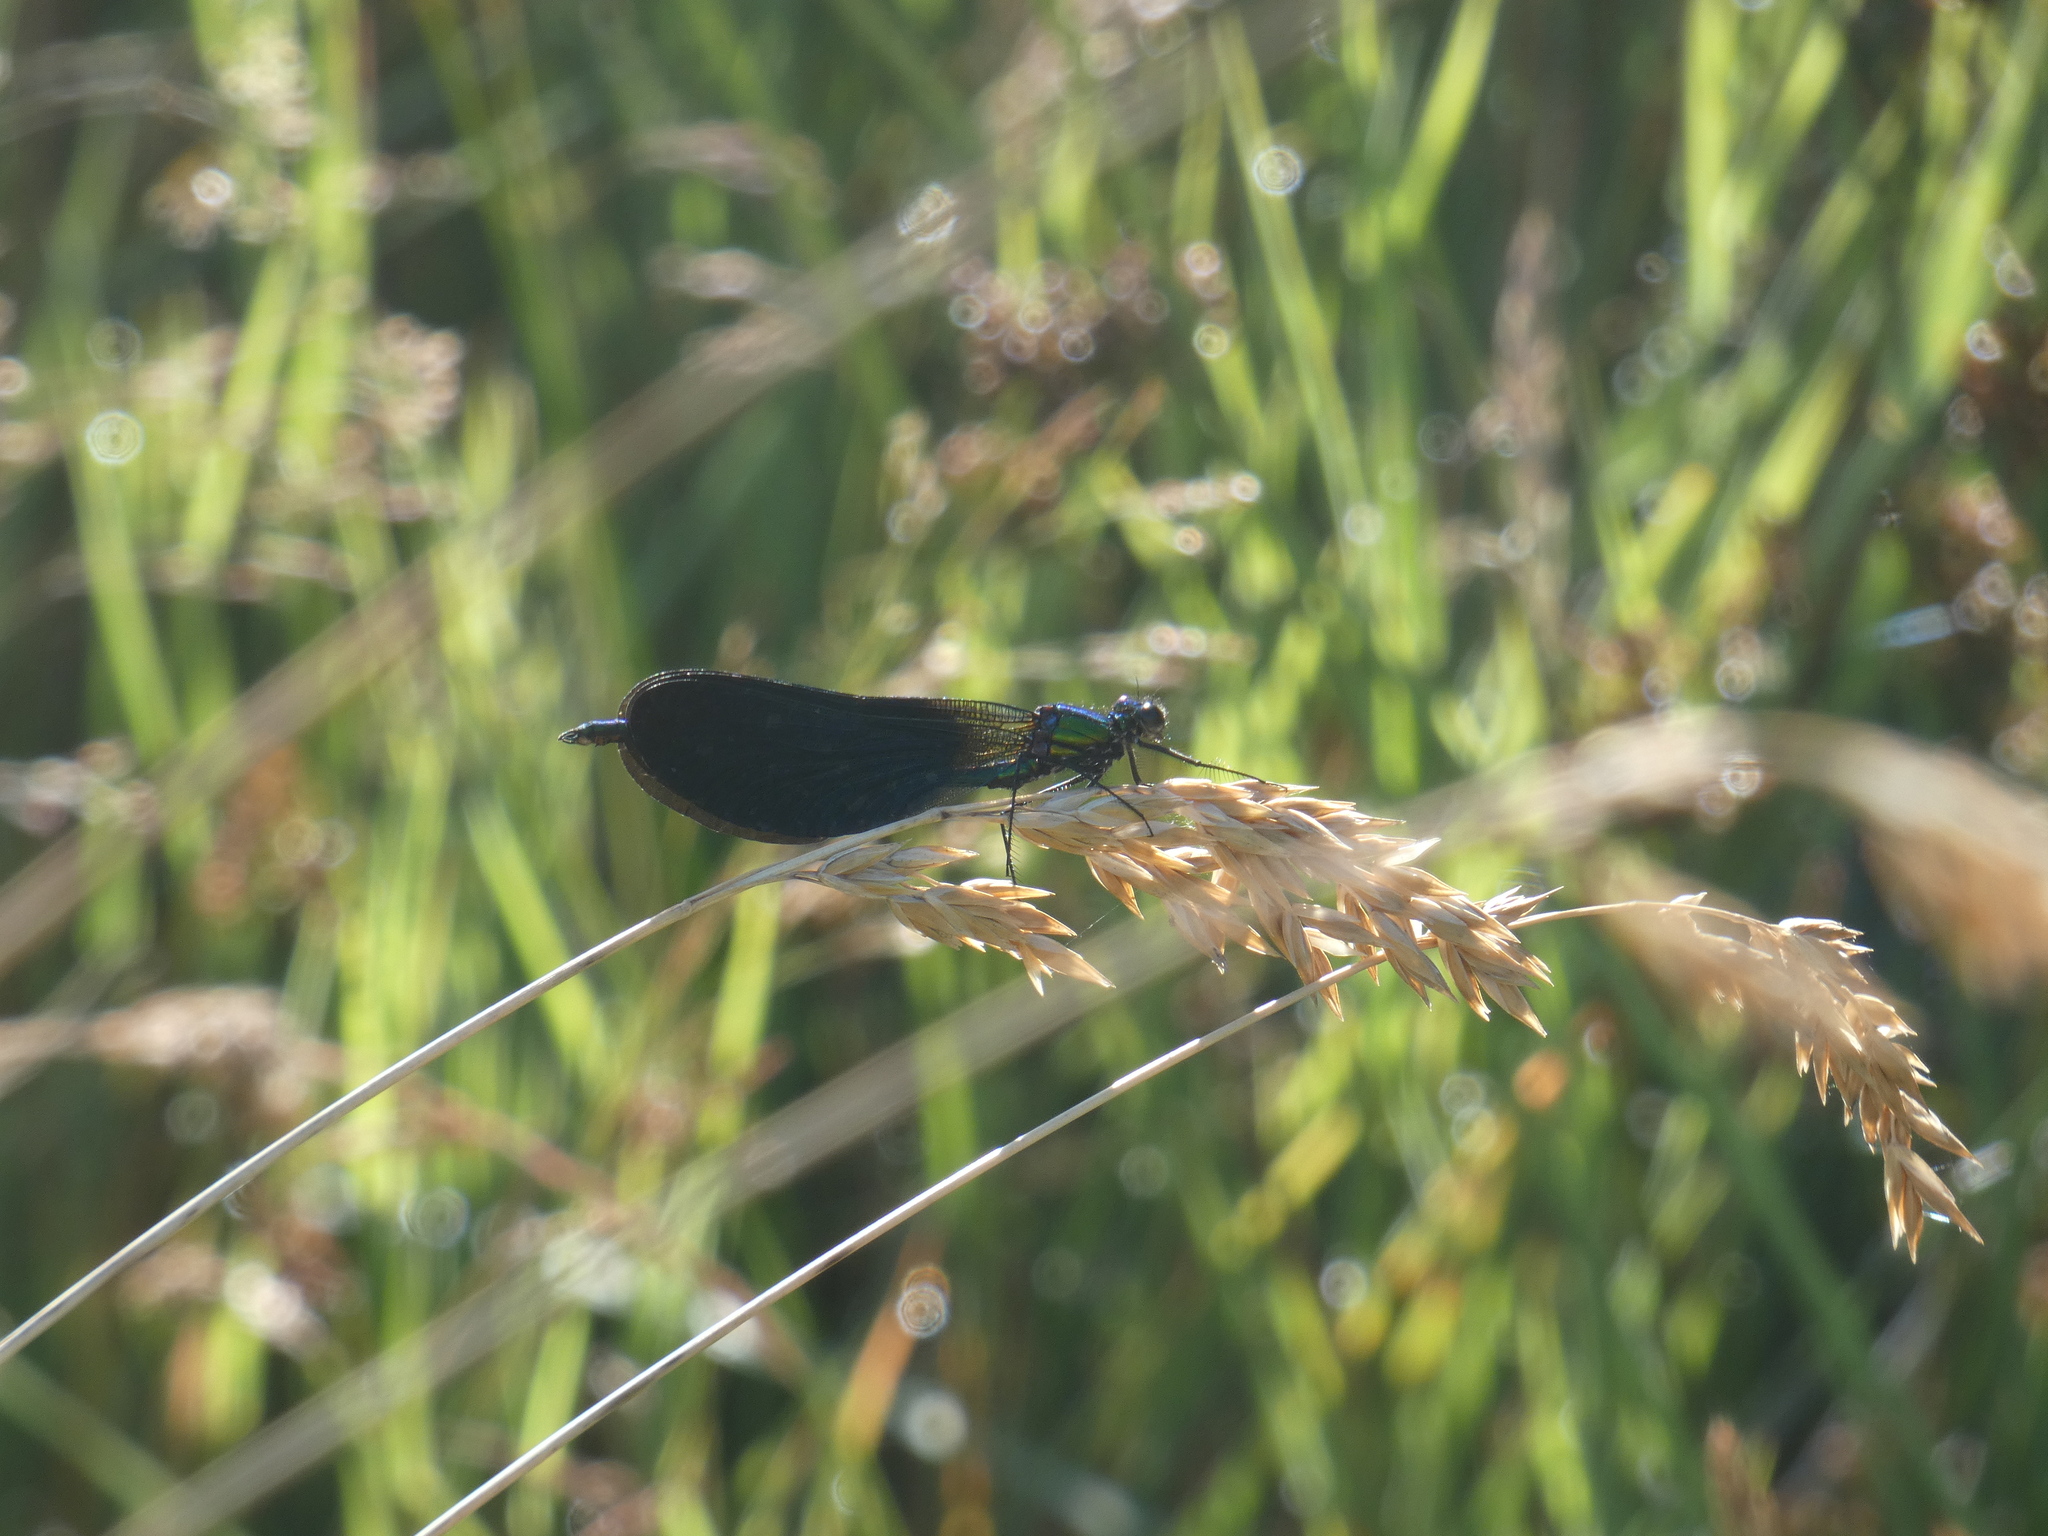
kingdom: Animalia
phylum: Arthropoda
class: Insecta
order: Odonata
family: Calopterygidae
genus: Calopteryx
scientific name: Calopteryx virgo
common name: Beautiful demoiselle
